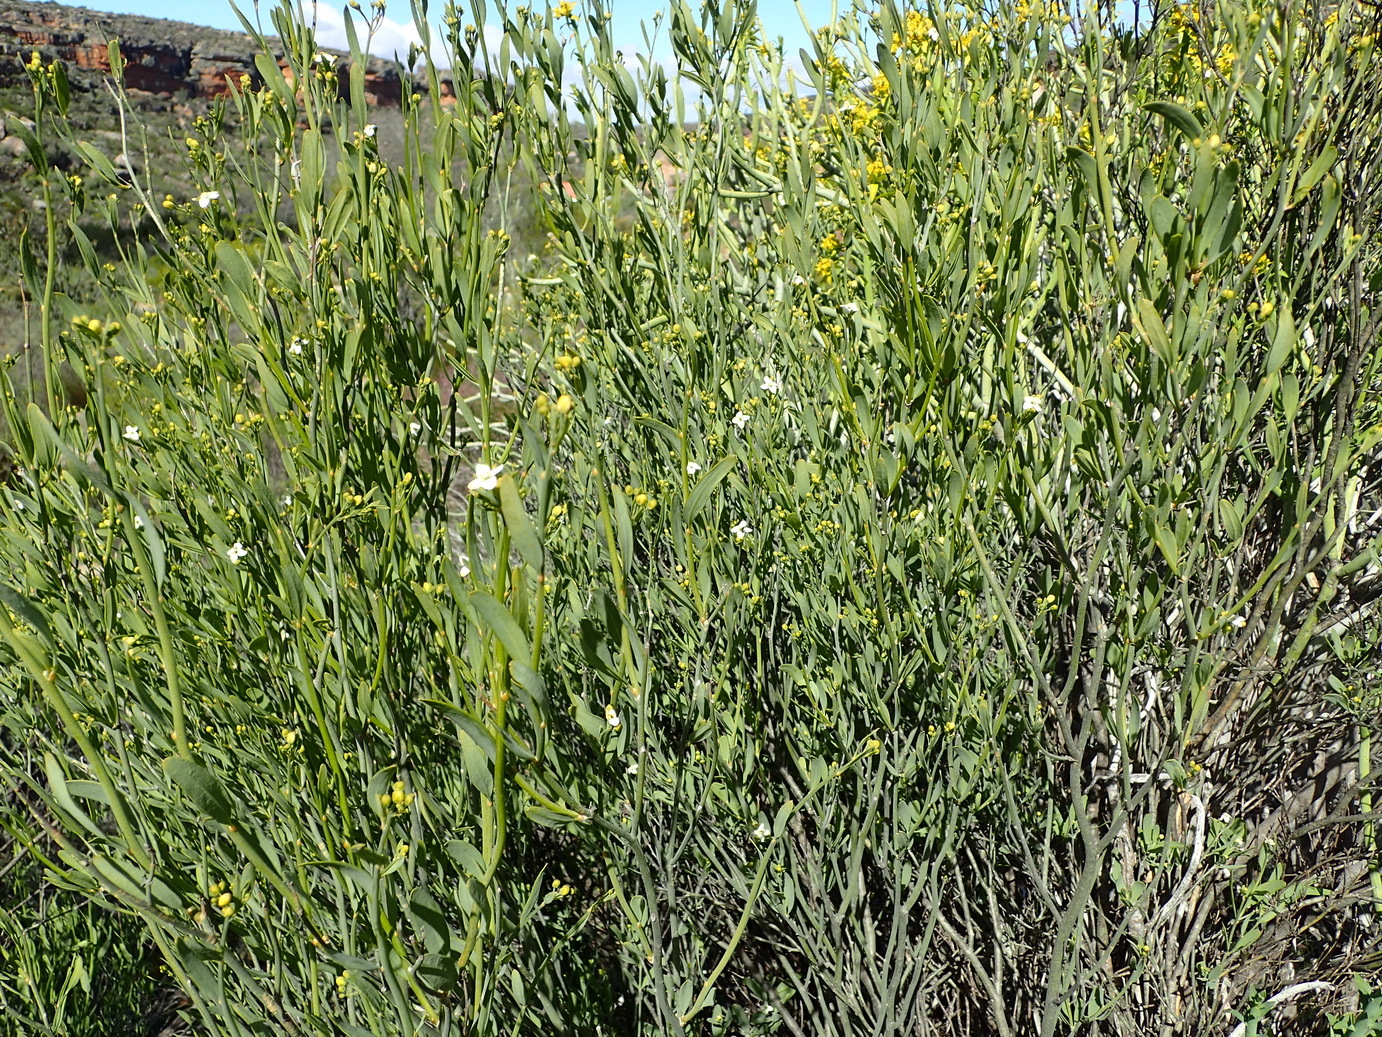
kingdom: Plantae
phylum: Tracheophyta
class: Magnoliopsida
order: Solanales
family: Montiniaceae
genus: Montinia
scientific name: Montinia caryophyllacea
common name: Wild clove-bush
